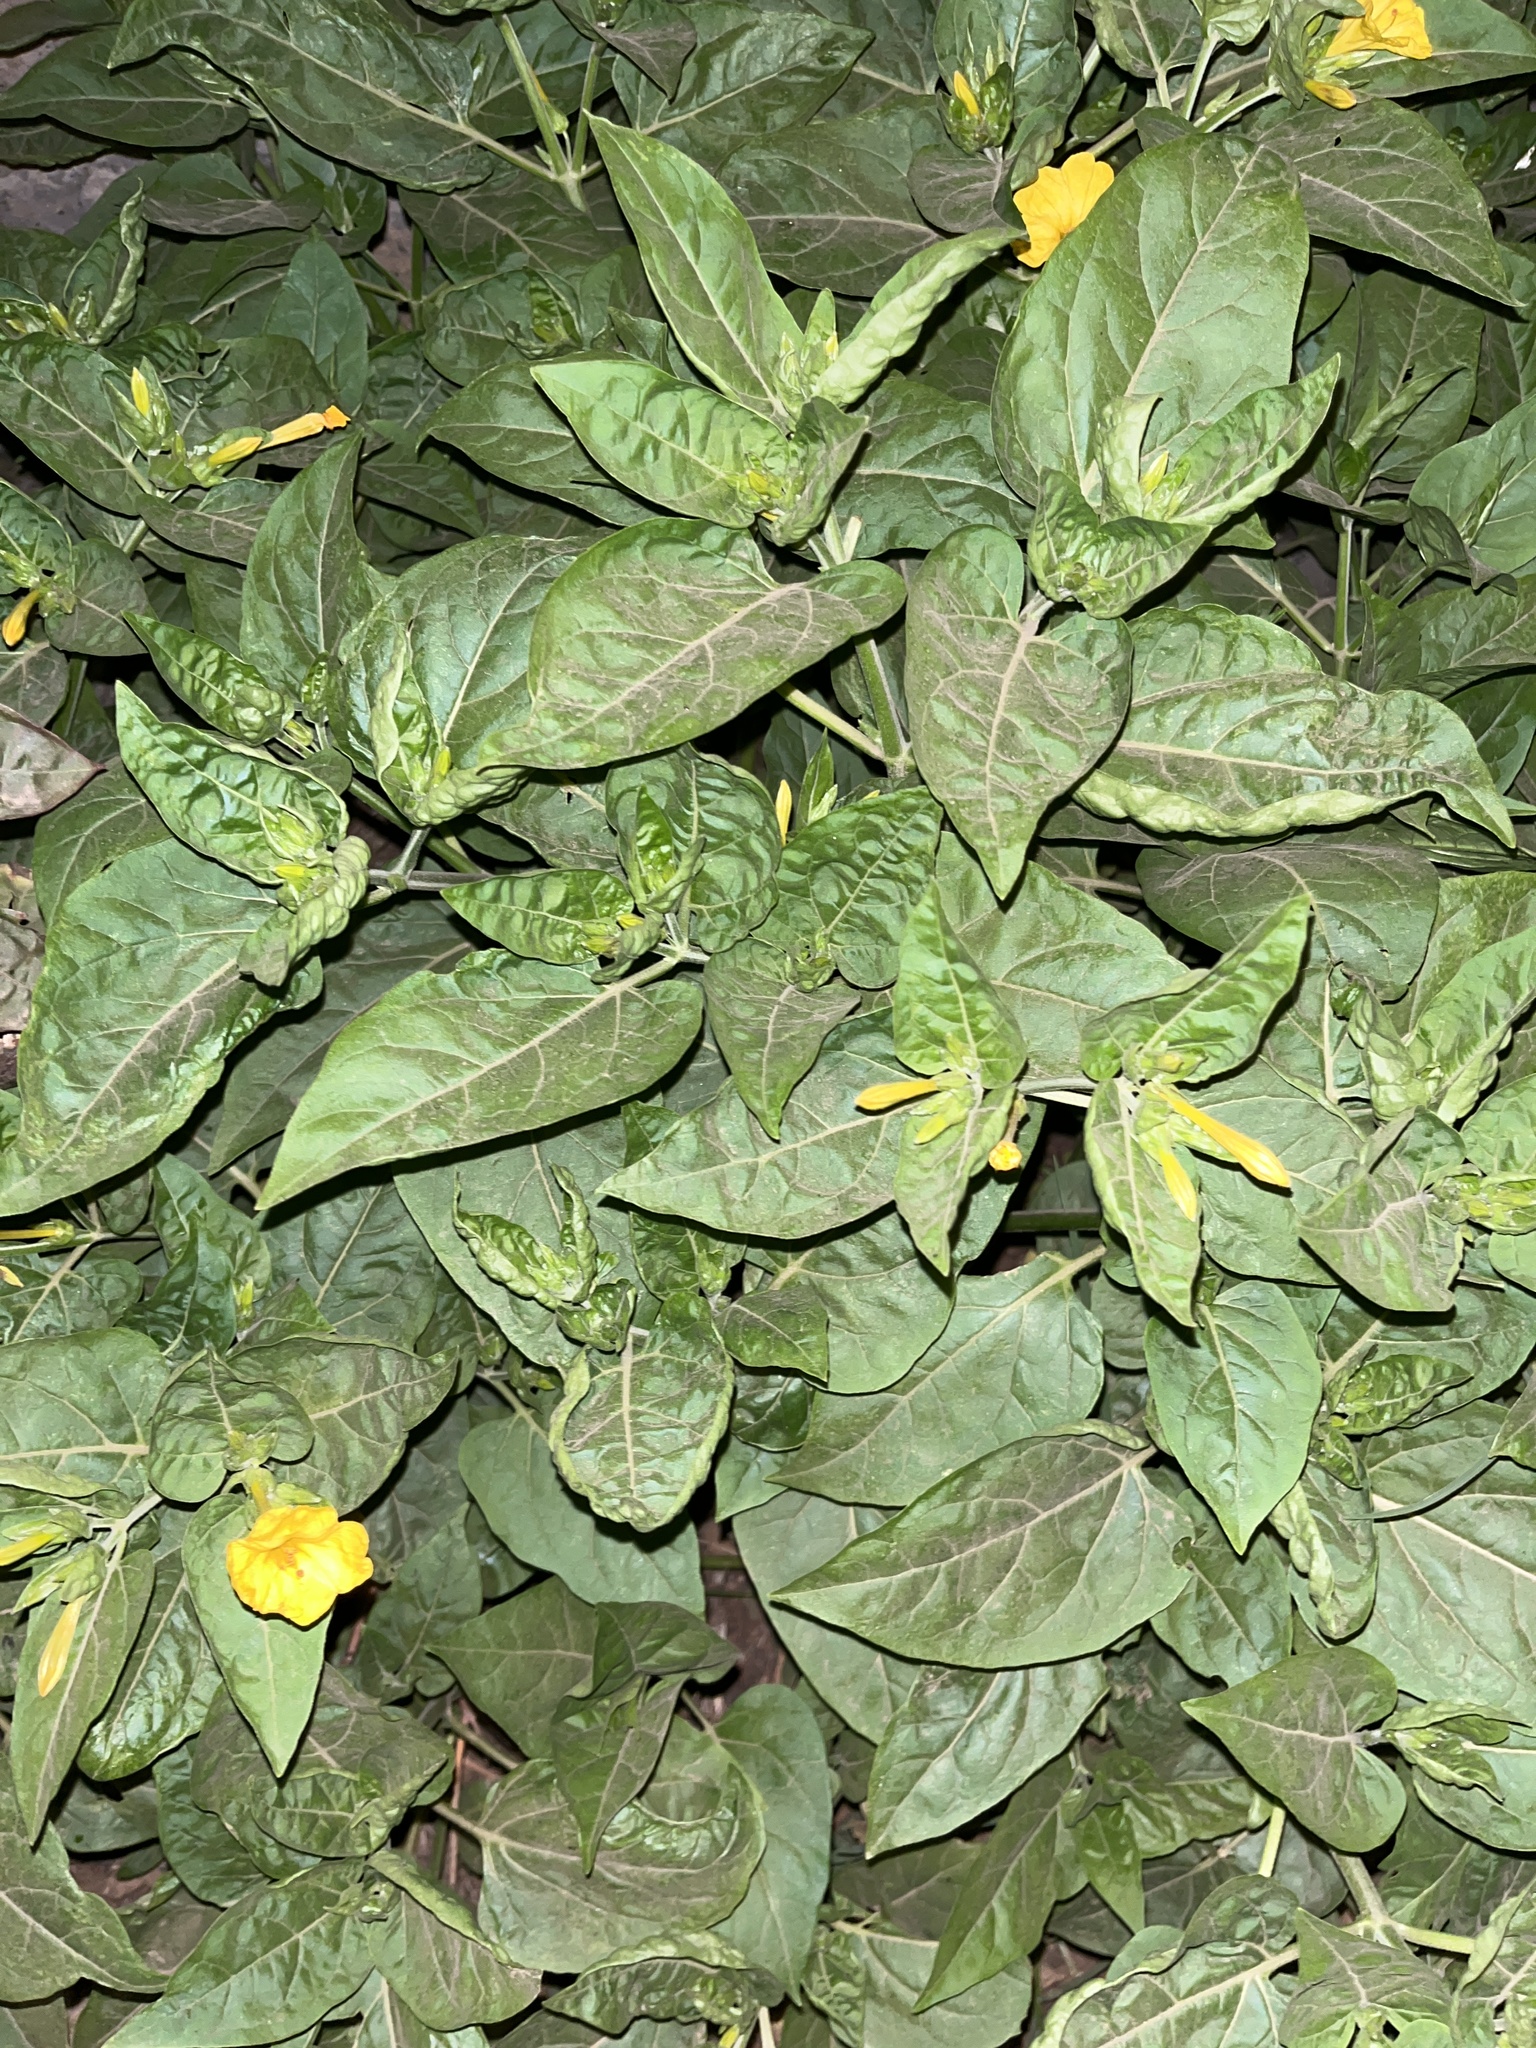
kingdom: Plantae
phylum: Tracheophyta
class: Magnoliopsida
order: Caryophyllales
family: Nyctaginaceae
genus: Mirabilis
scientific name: Mirabilis jalapa
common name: Marvel-of-peru
